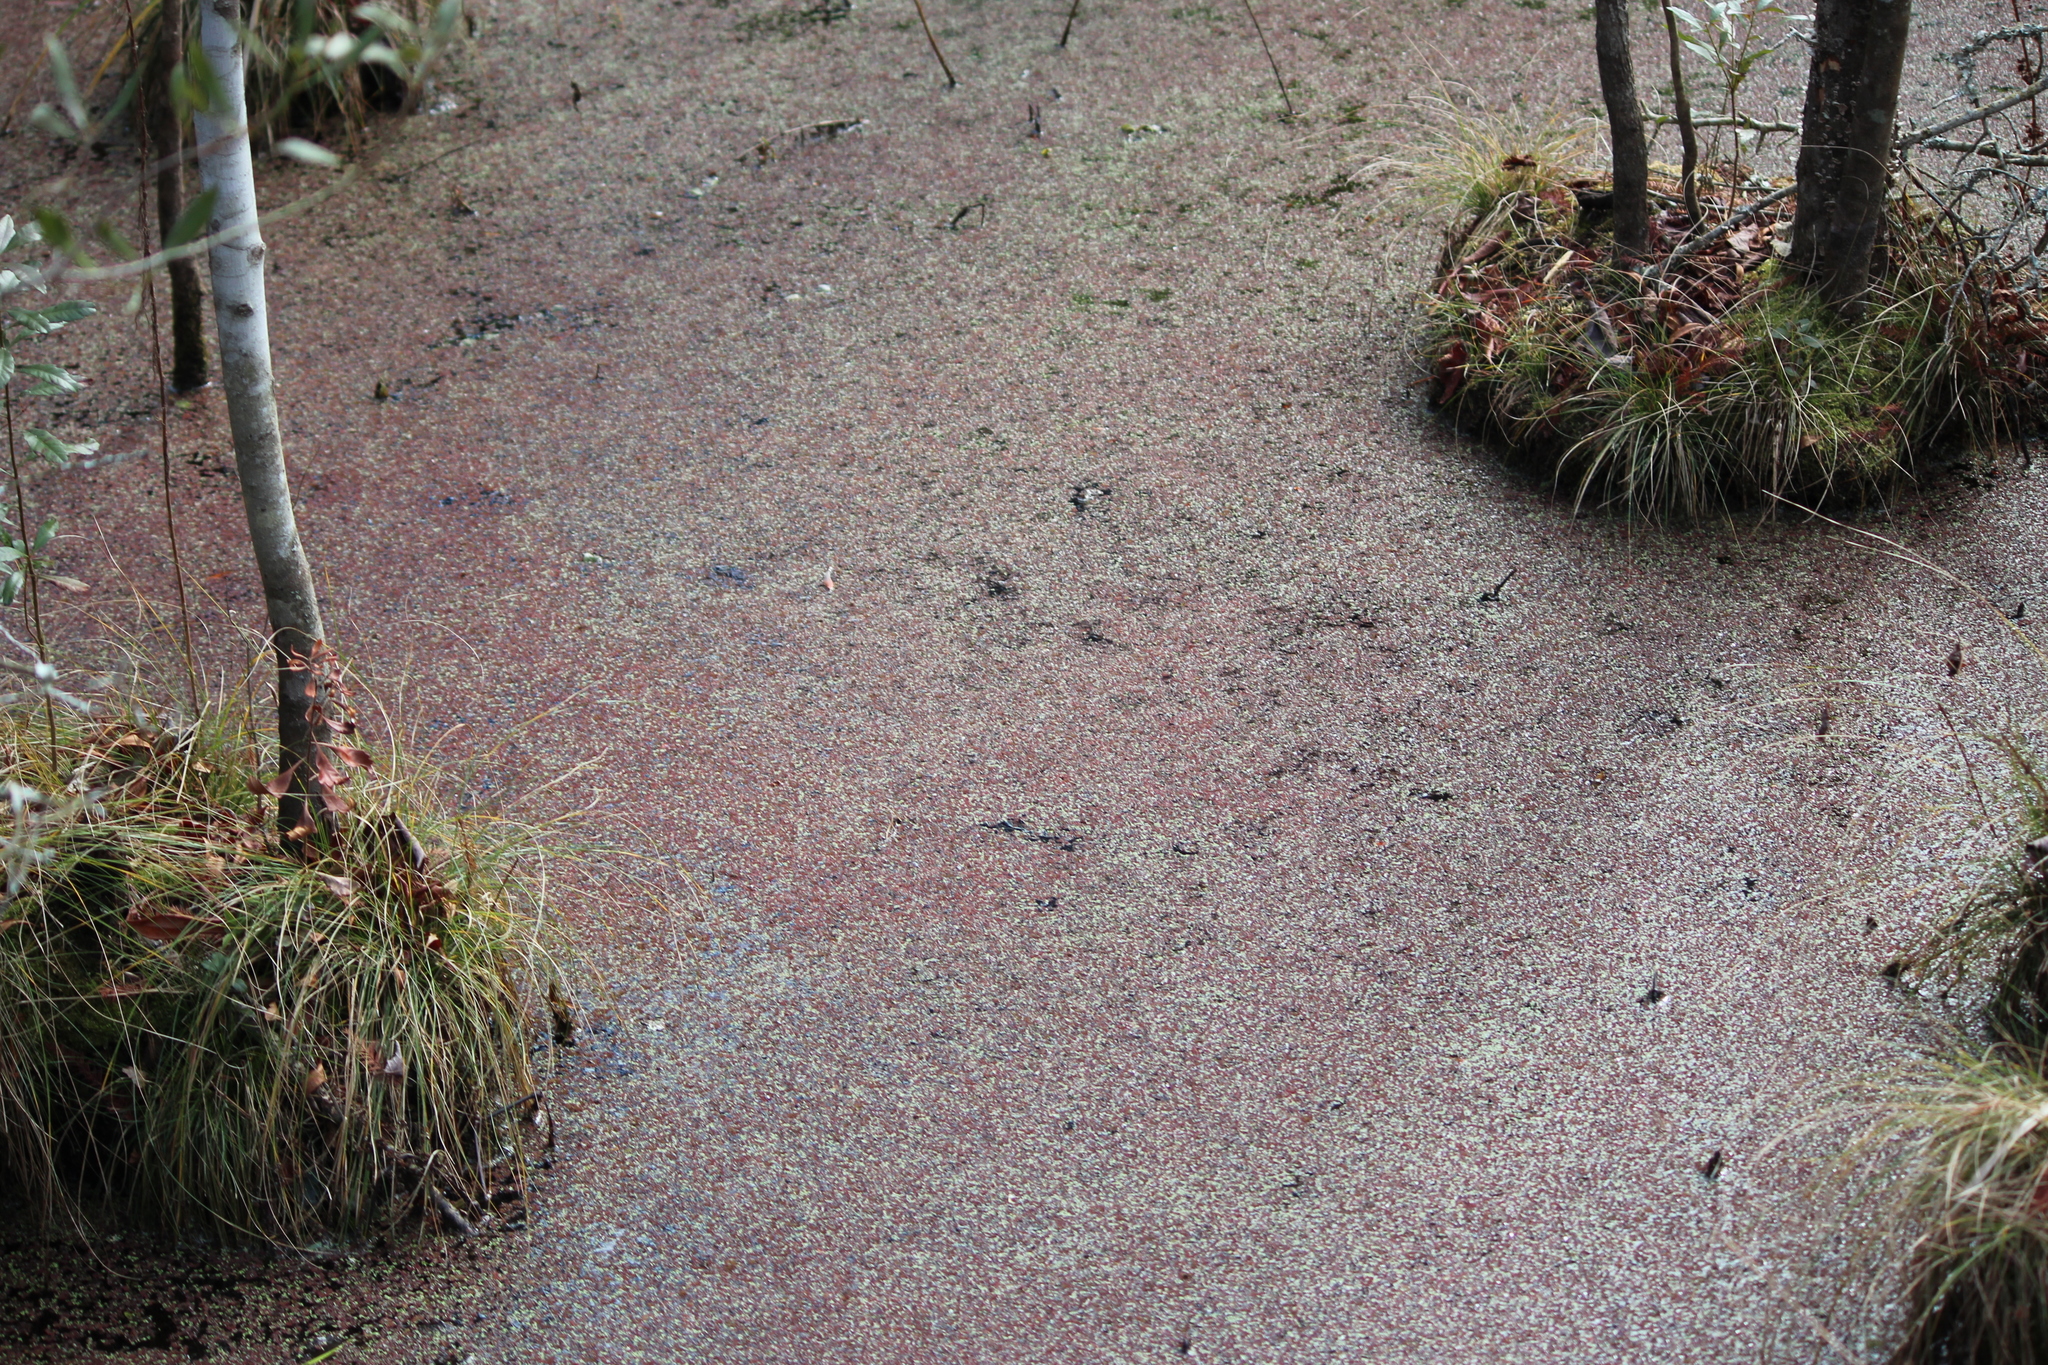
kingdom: Plantae
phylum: Tracheophyta
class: Polypodiopsida
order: Salviniales
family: Salviniaceae
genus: Azolla
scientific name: Azolla caroliniana
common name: Carolina mosquitofern
